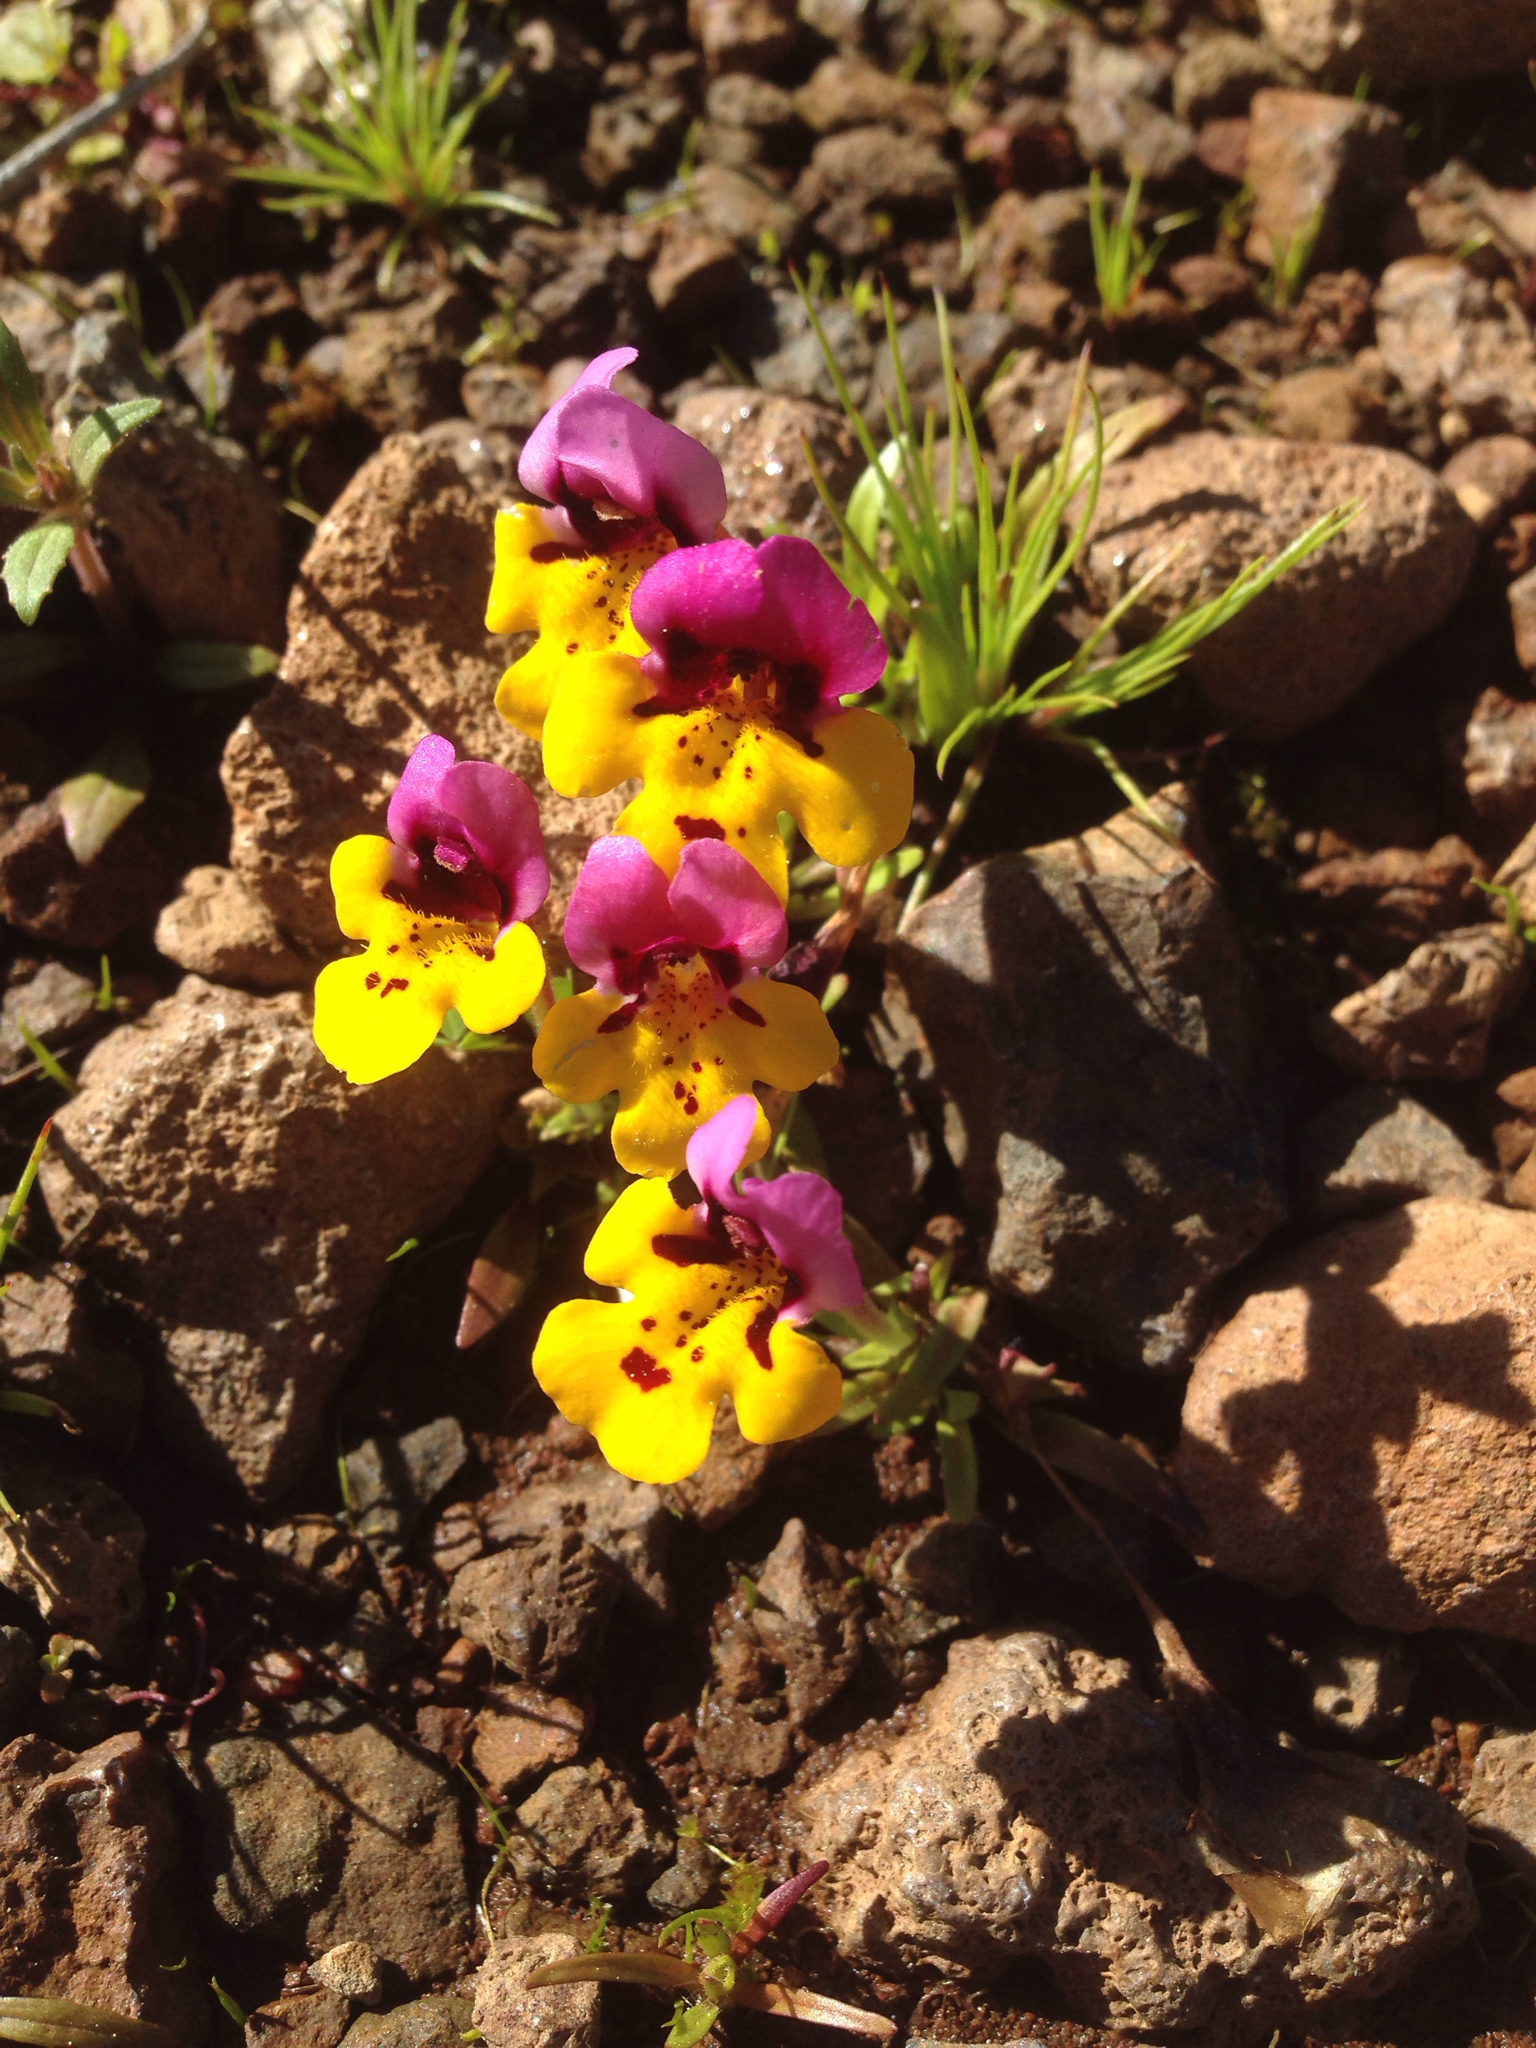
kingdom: Plantae
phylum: Tracheophyta
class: Magnoliopsida
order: Lamiales
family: Phrymaceae
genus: Diplacus
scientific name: Diplacus pulchellus
